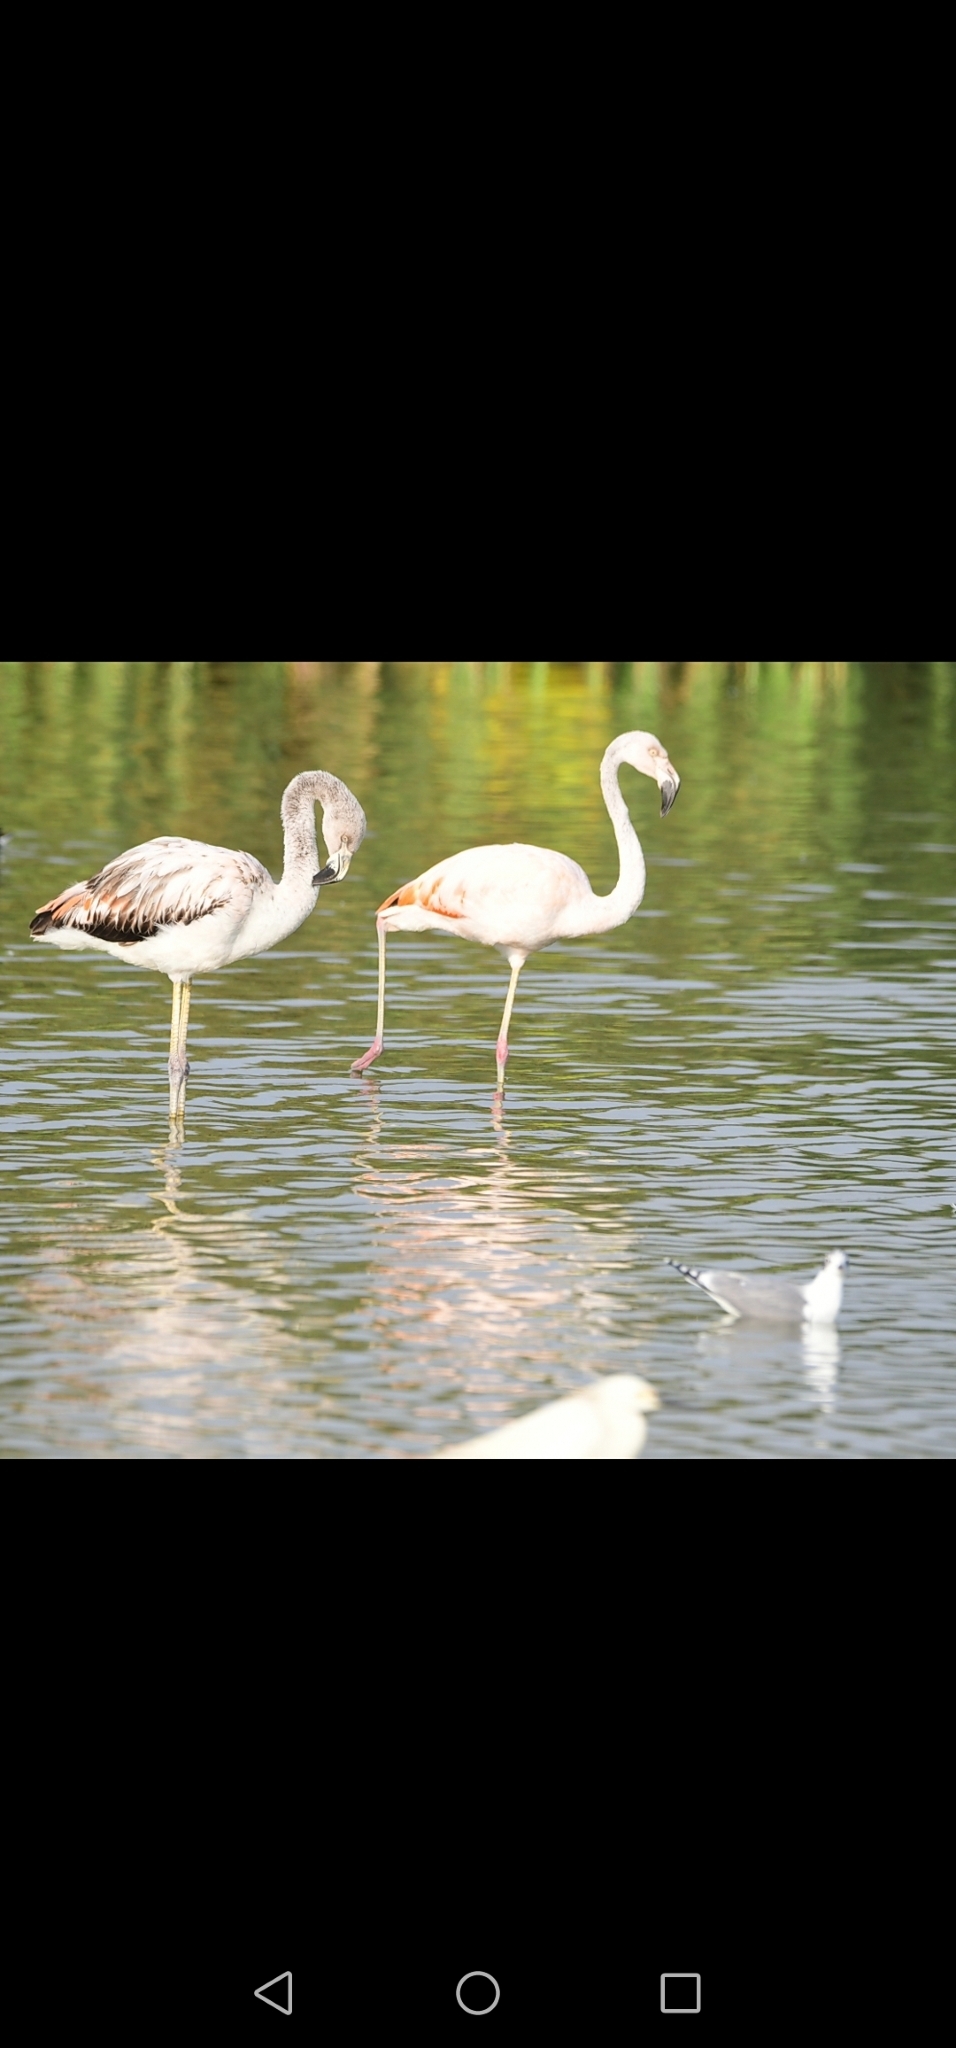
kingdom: Animalia
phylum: Chordata
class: Aves
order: Phoenicopteriformes
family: Phoenicopteridae
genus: Phoenicopterus
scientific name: Phoenicopterus chilensis
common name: Chilean flamingo
